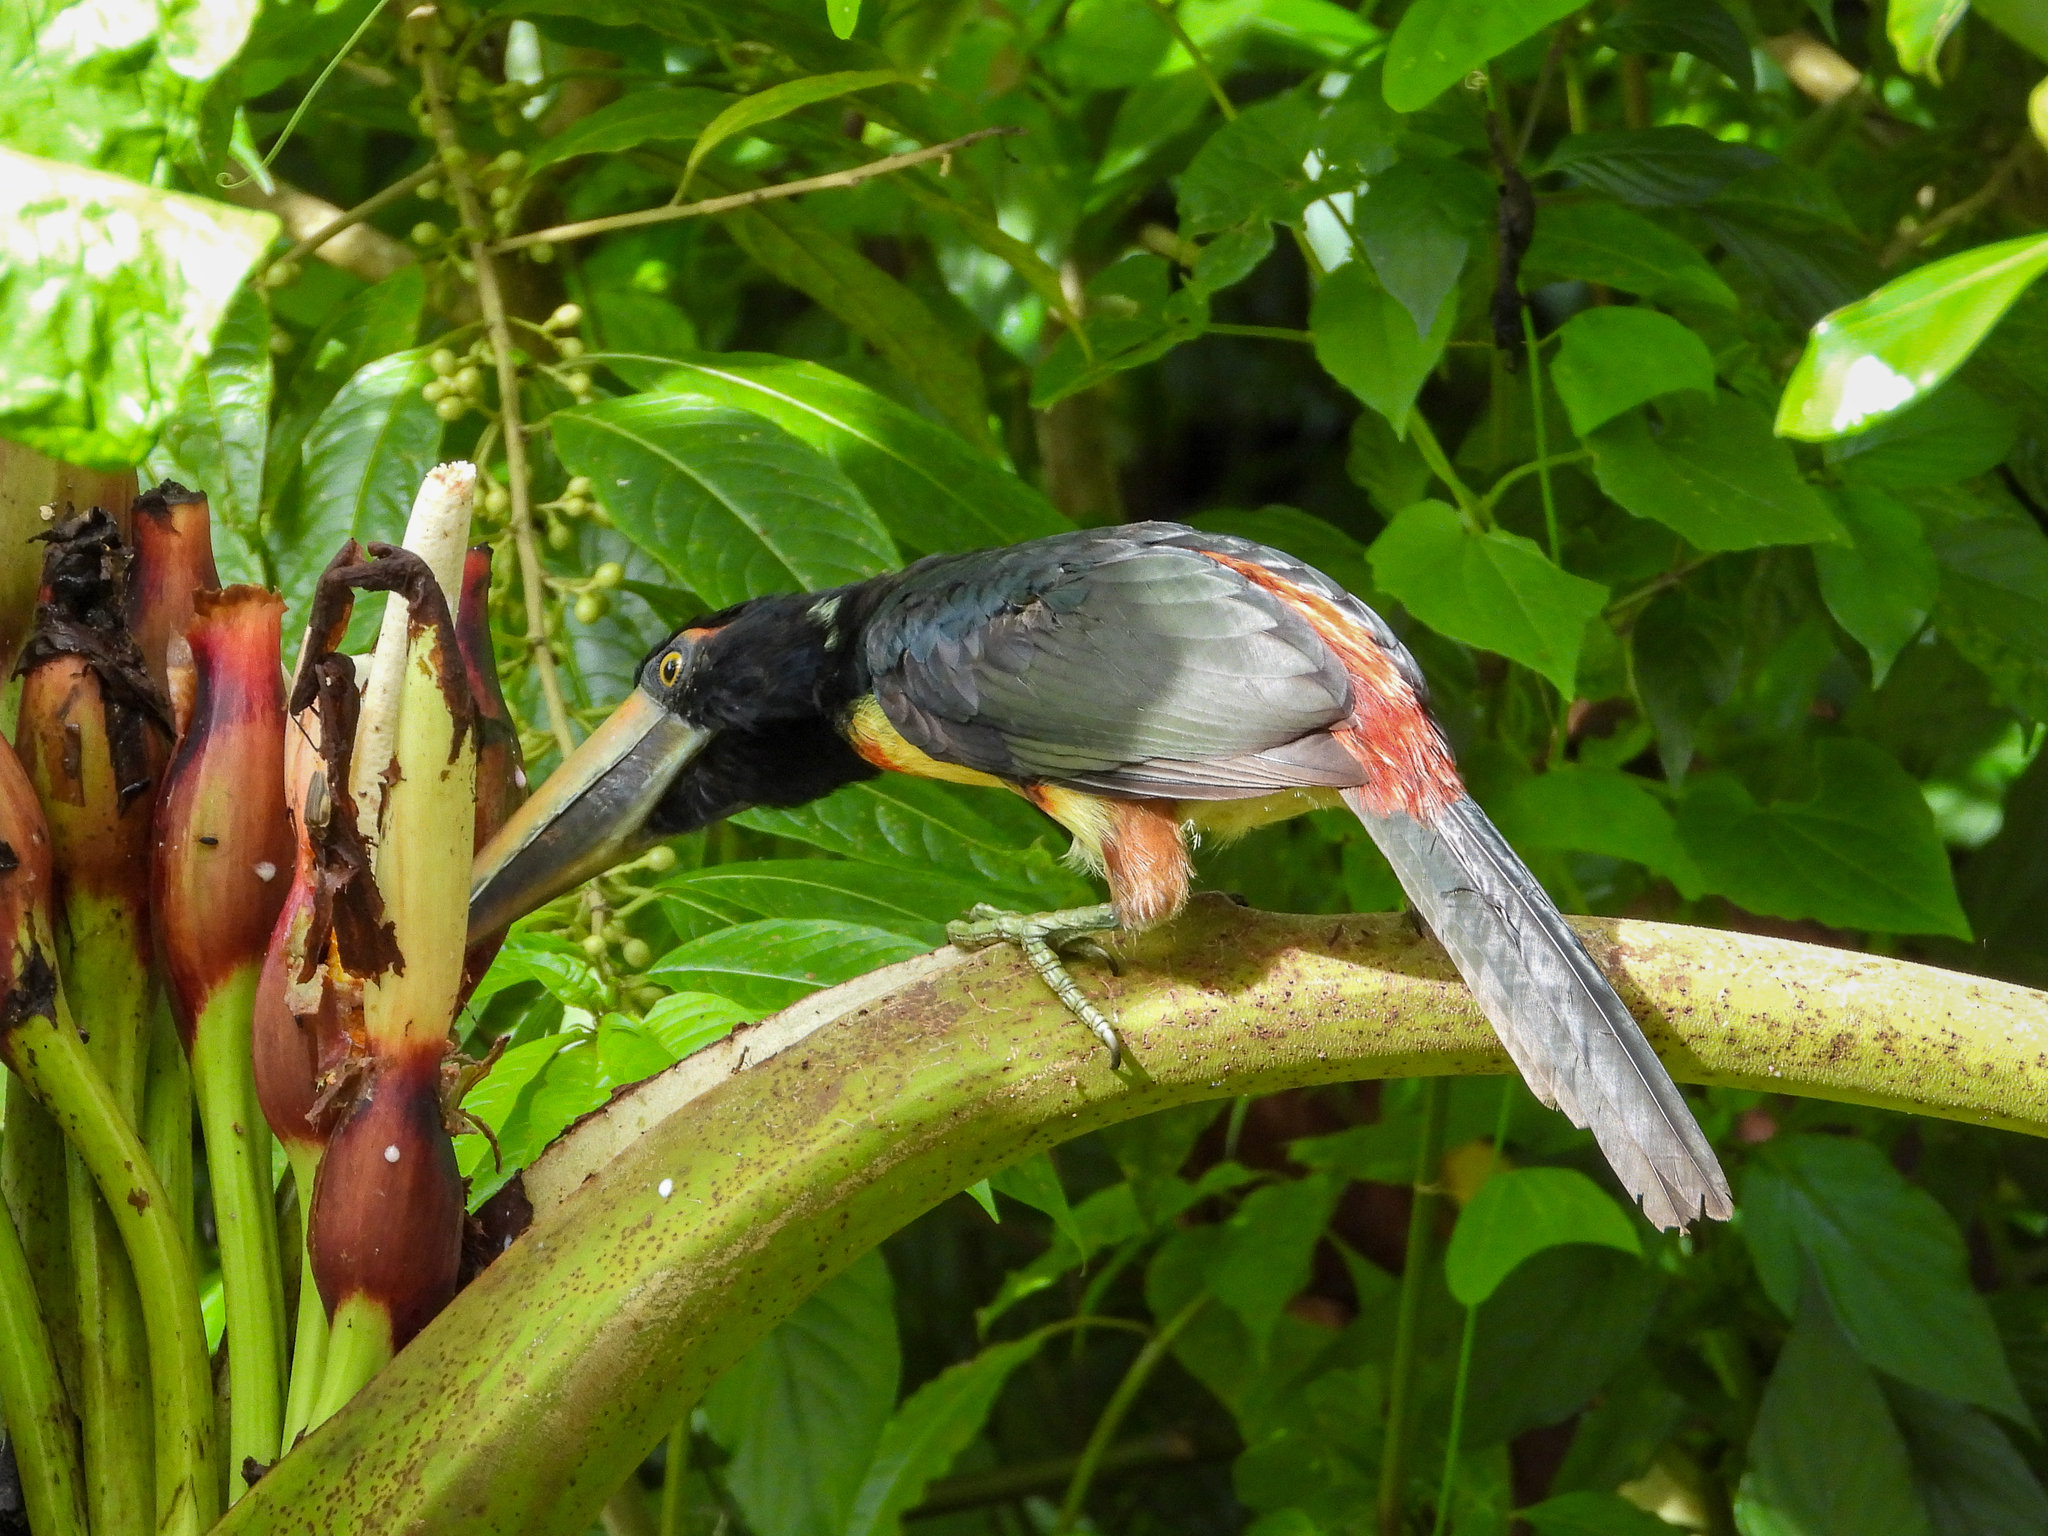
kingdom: Animalia
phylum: Chordata
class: Aves
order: Piciformes
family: Ramphastidae
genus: Pteroglossus
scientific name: Pteroglossus torquatus
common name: Collared aracari
